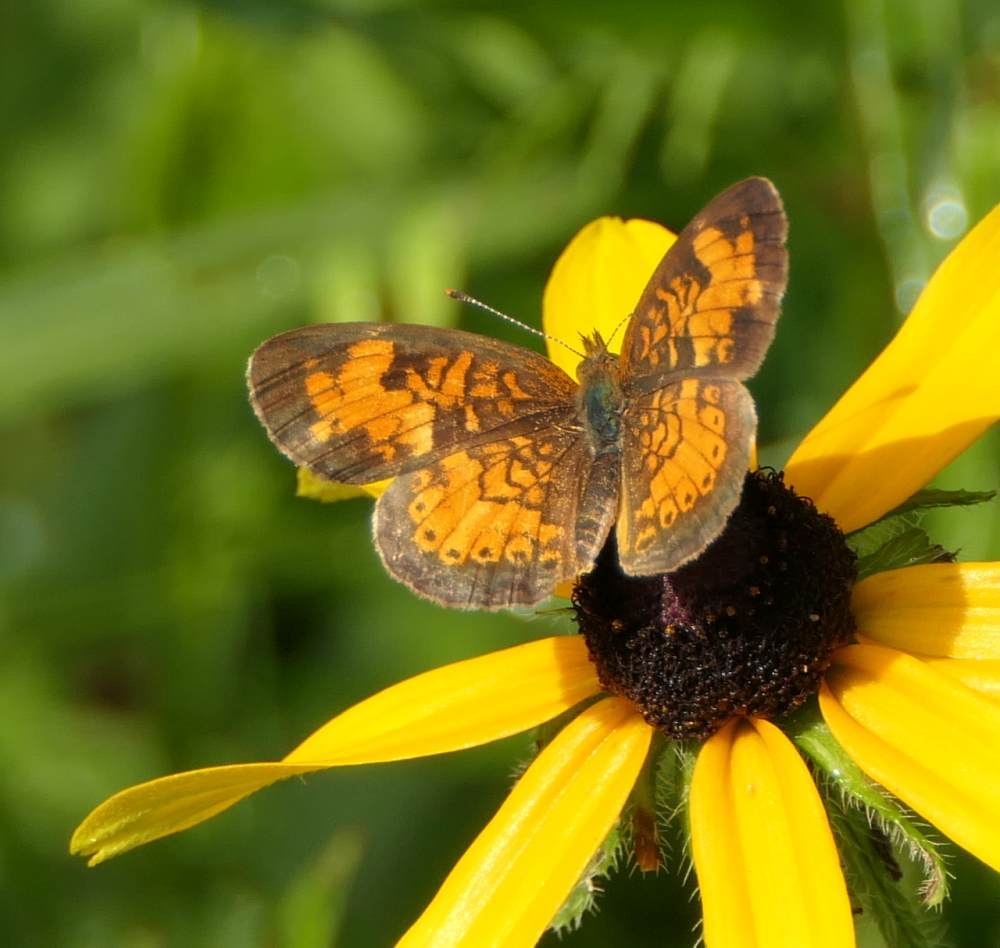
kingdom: Animalia
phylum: Arthropoda
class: Insecta
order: Lepidoptera
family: Nymphalidae
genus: Phyciodes
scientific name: Phyciodes tharos
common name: Pearl crescent
